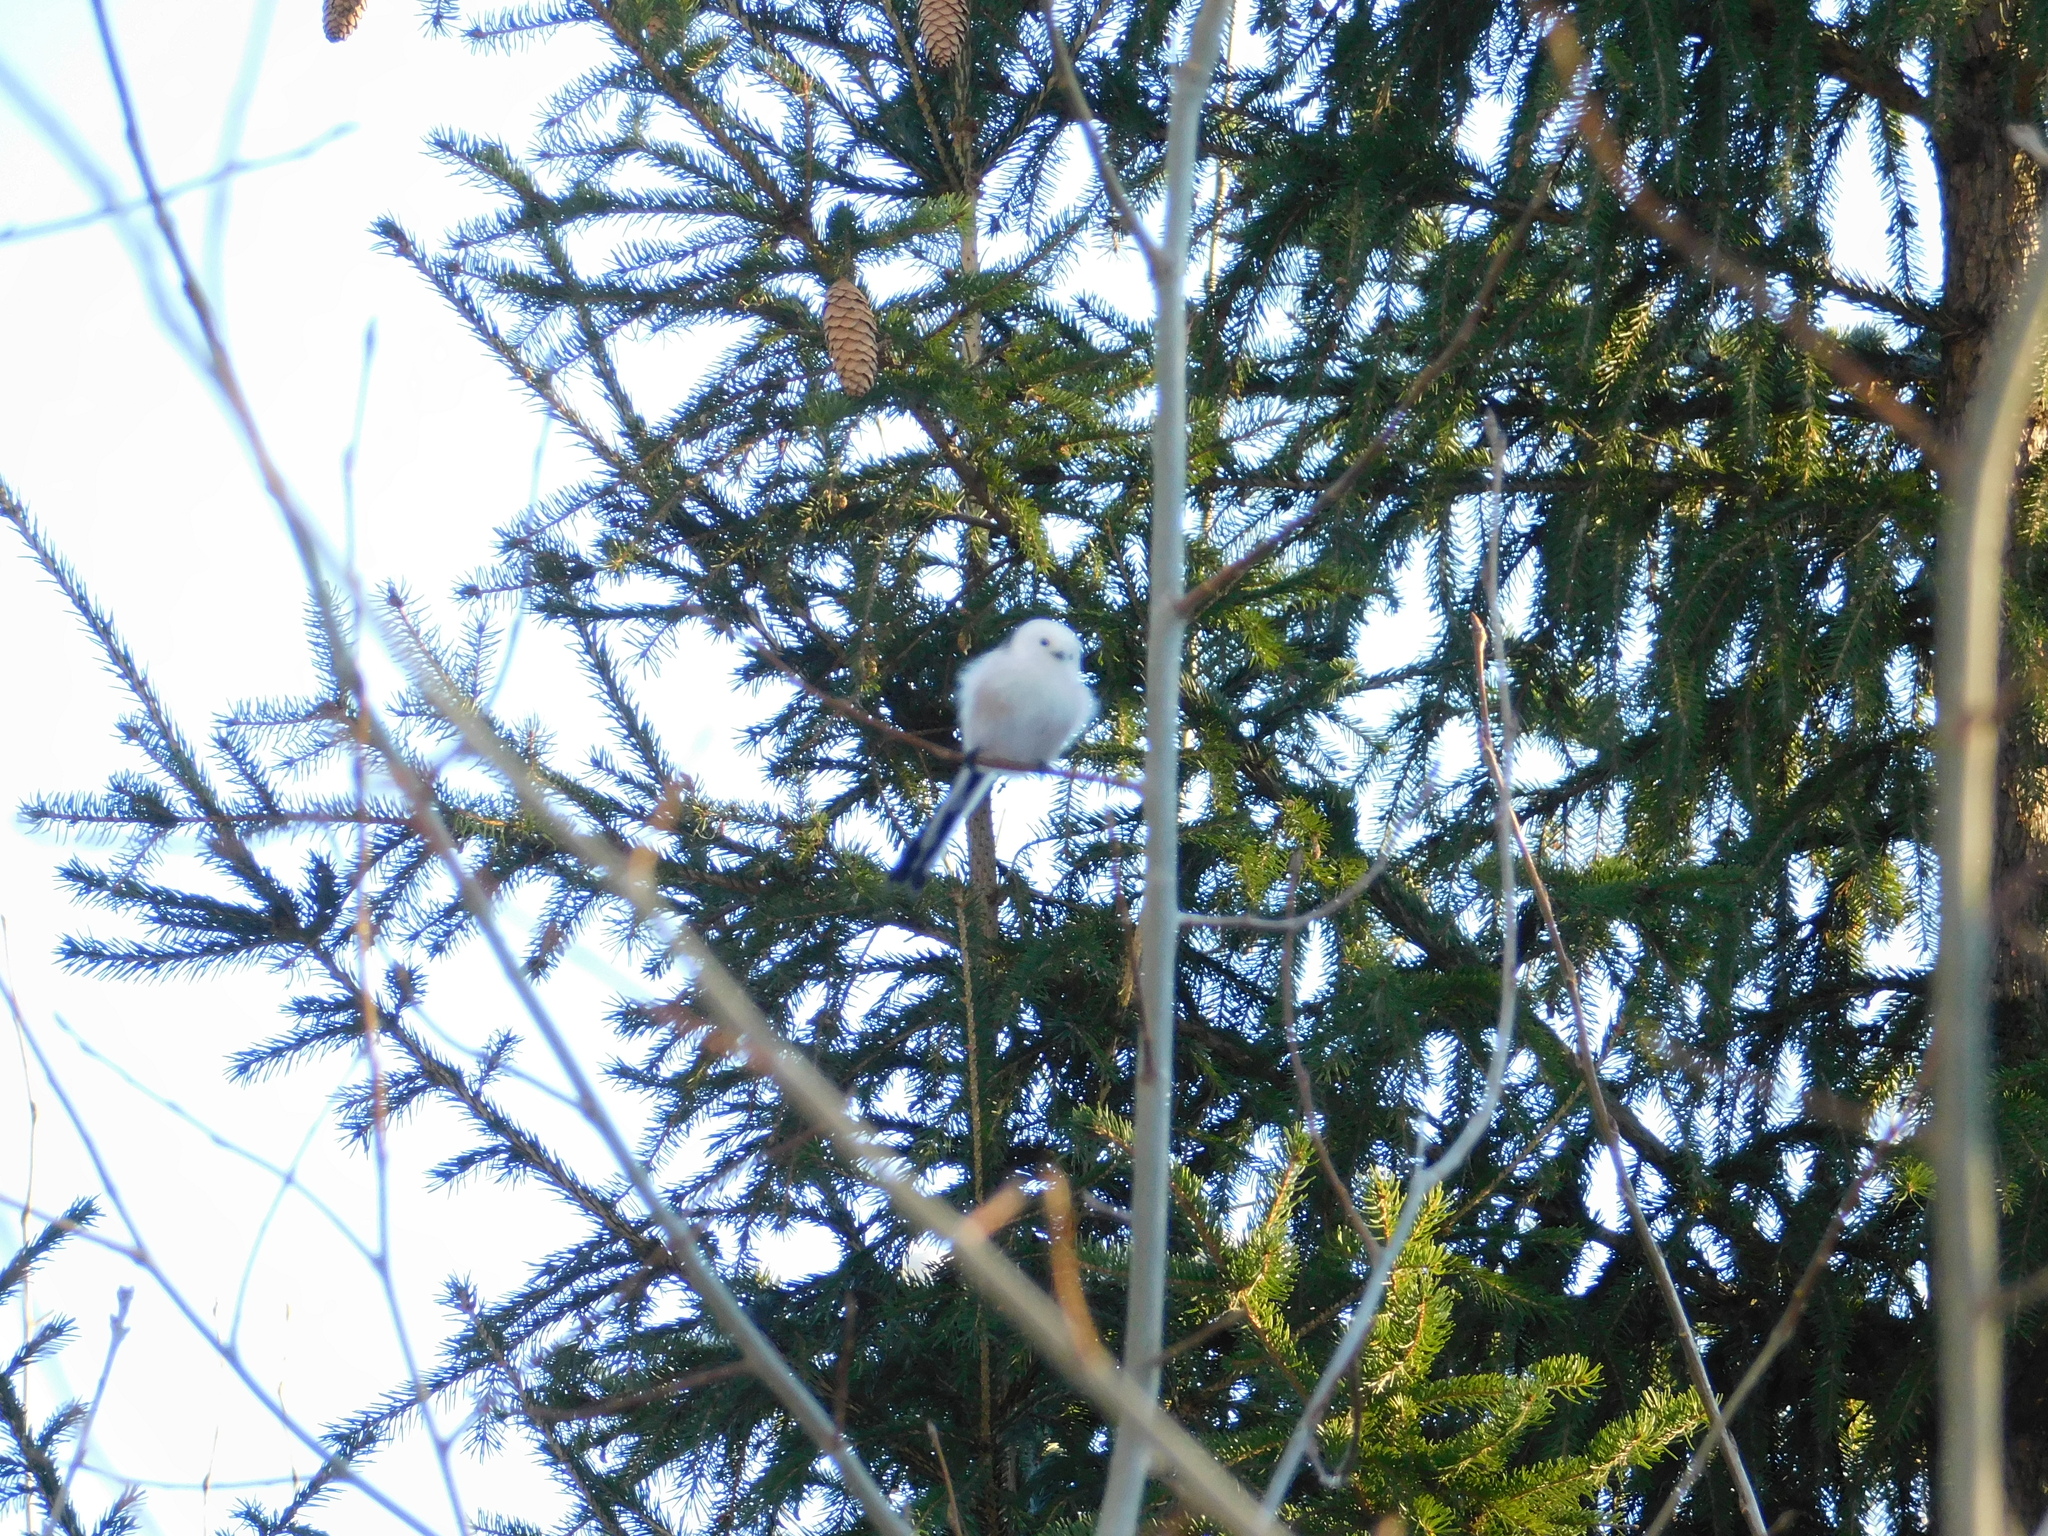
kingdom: Animalia
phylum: Chordata
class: Aves
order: Passeriformes
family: Aegithalidae
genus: Aegithalos
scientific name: Aegithalos caudatus
